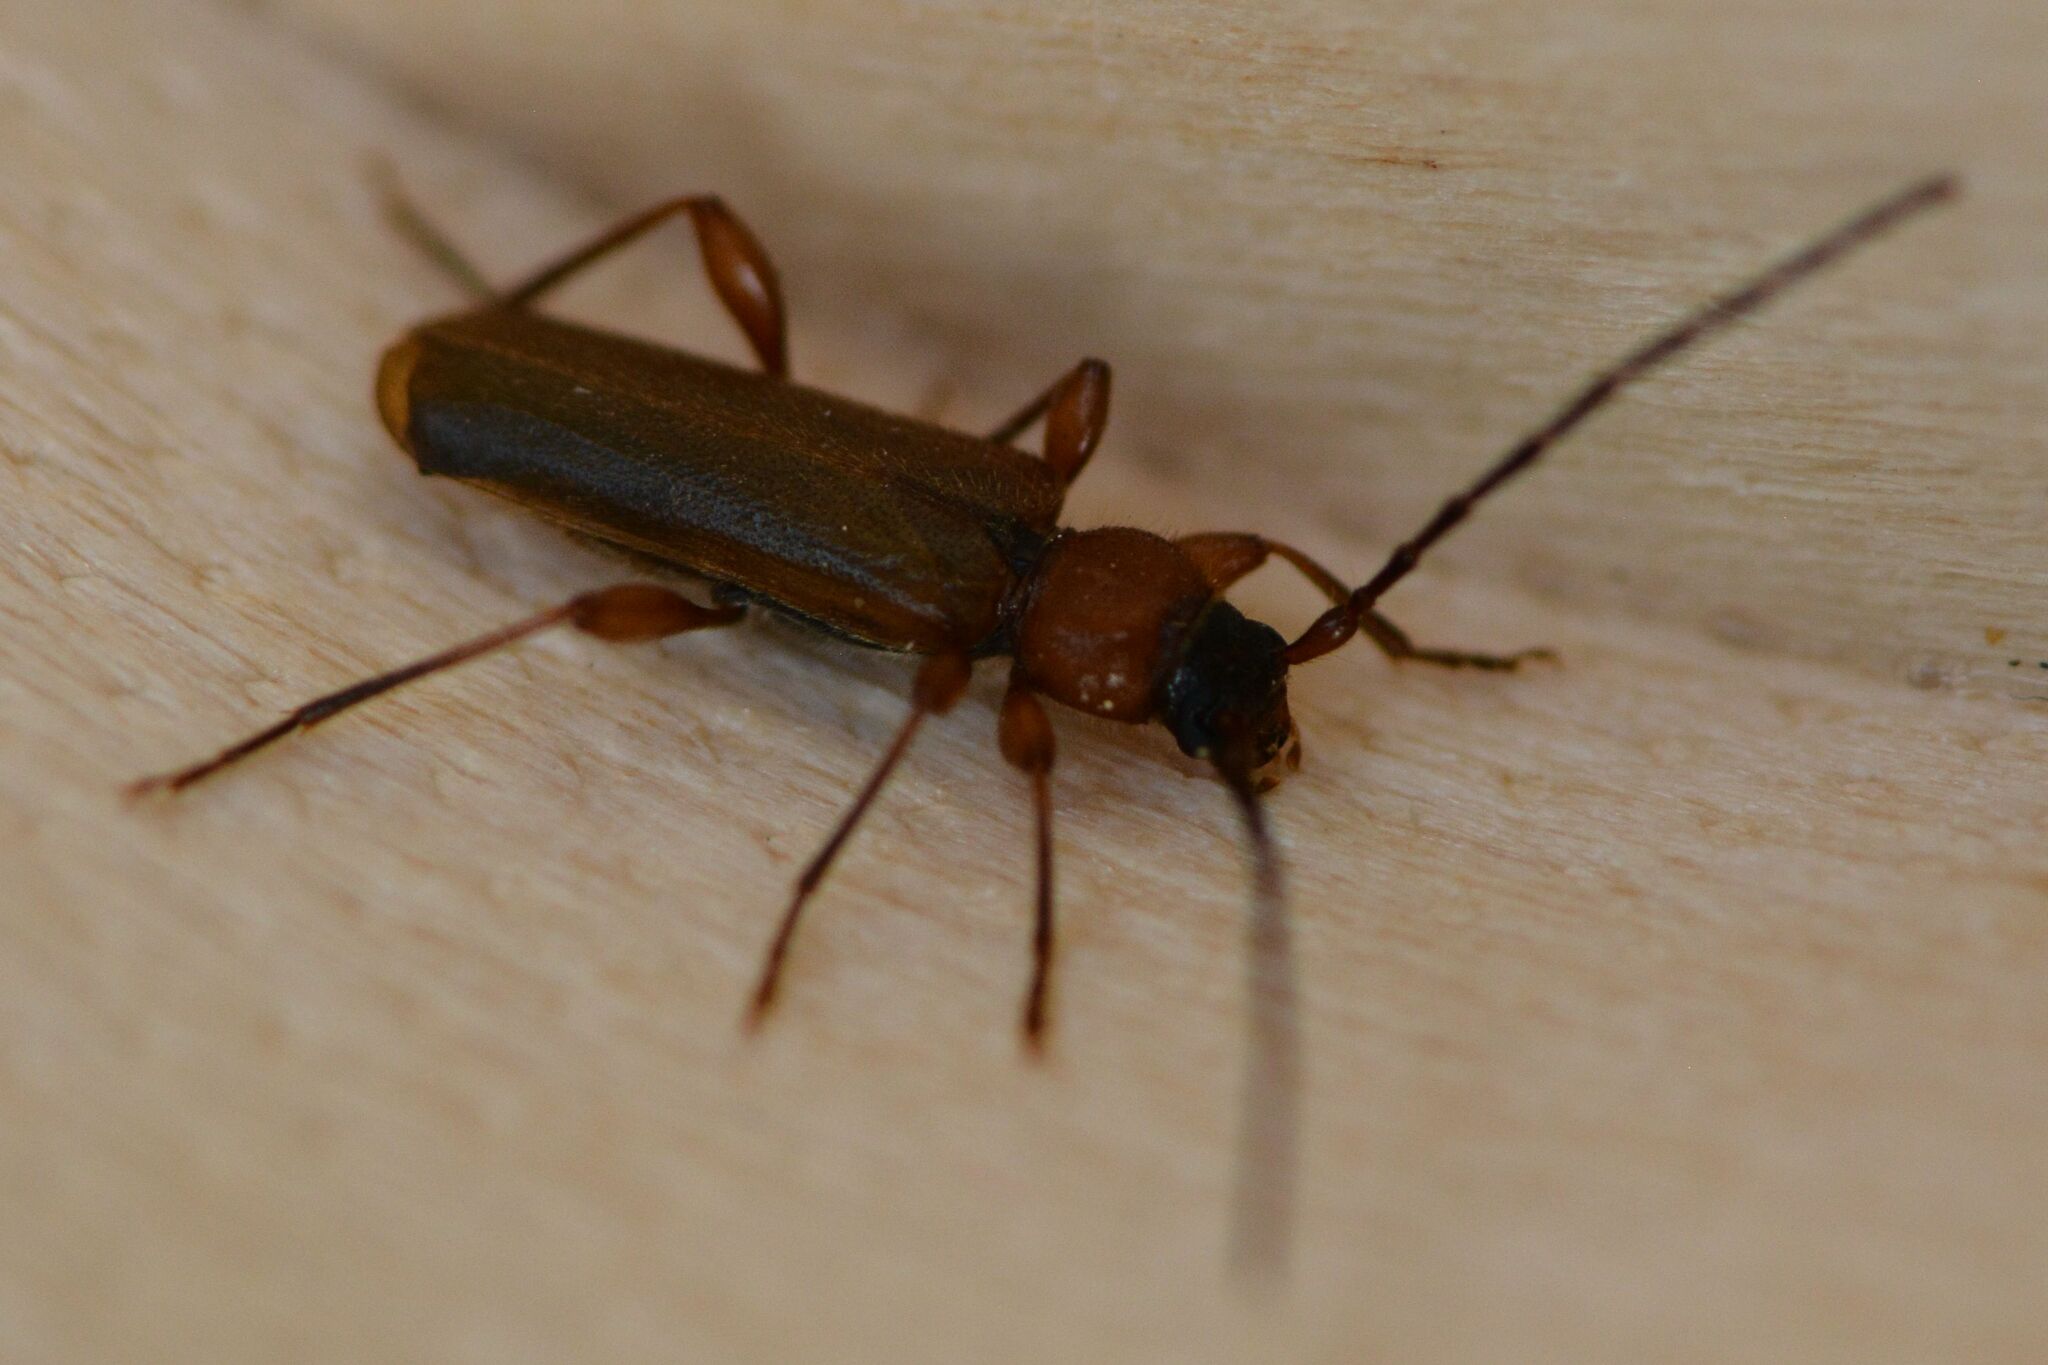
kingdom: Animalia
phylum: Arthropoda
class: Insecta
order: Coleoptera
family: Cerambycidae
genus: Phymatodes
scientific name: Phymatodes testaceus
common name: Long-horned beetle
